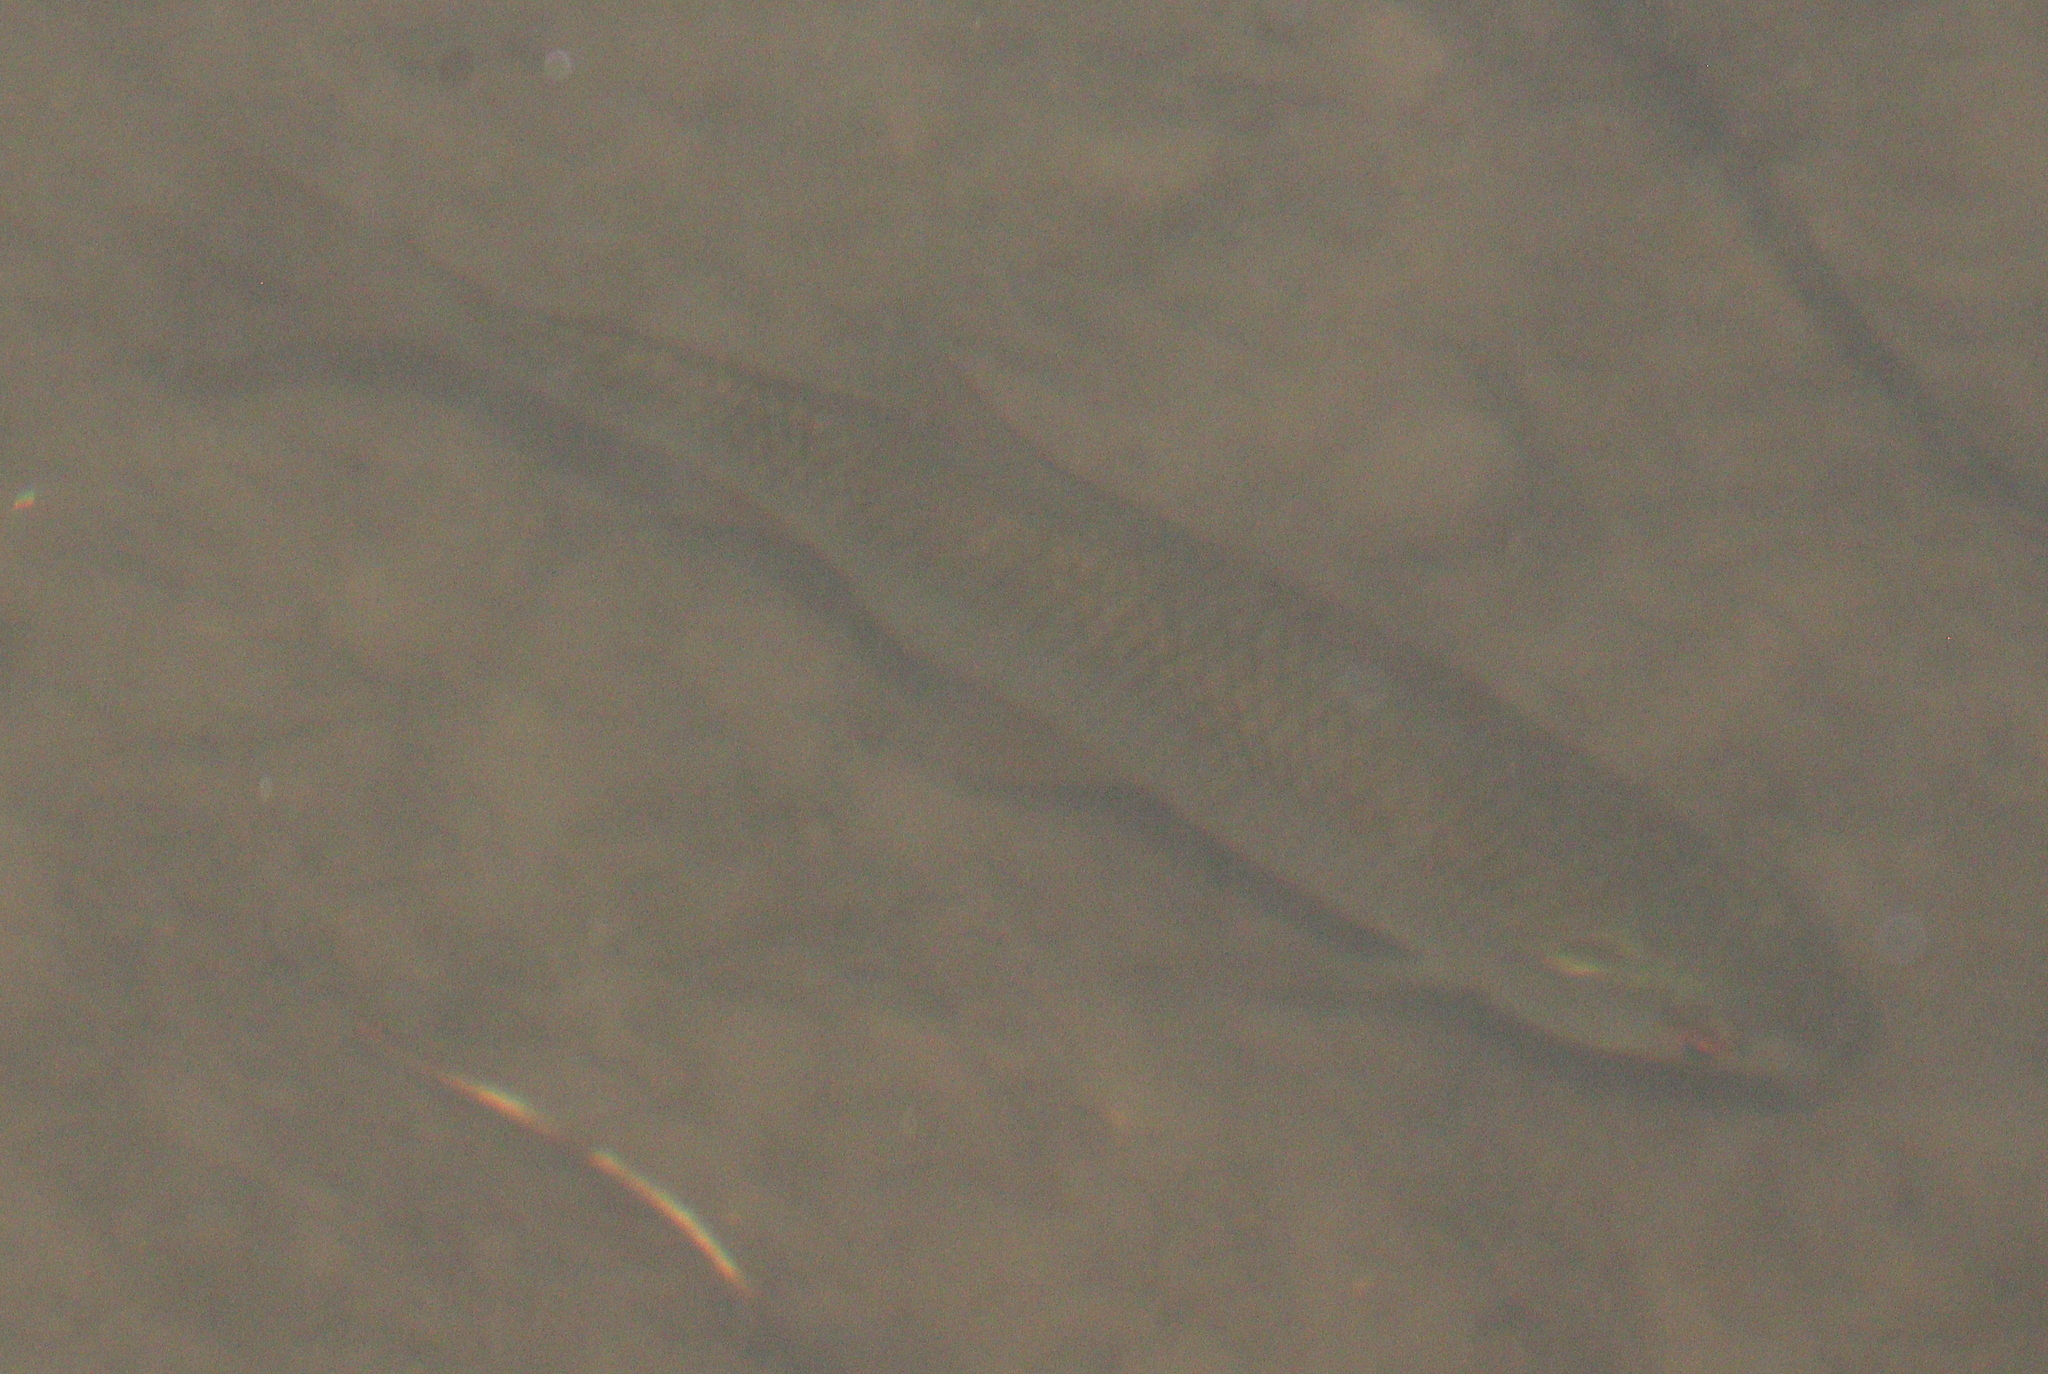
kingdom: Animalia
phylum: Chordata
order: Cypriniformes
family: Cyprinidae
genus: Rutilus
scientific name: Rutilus rutilus
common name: Roach
